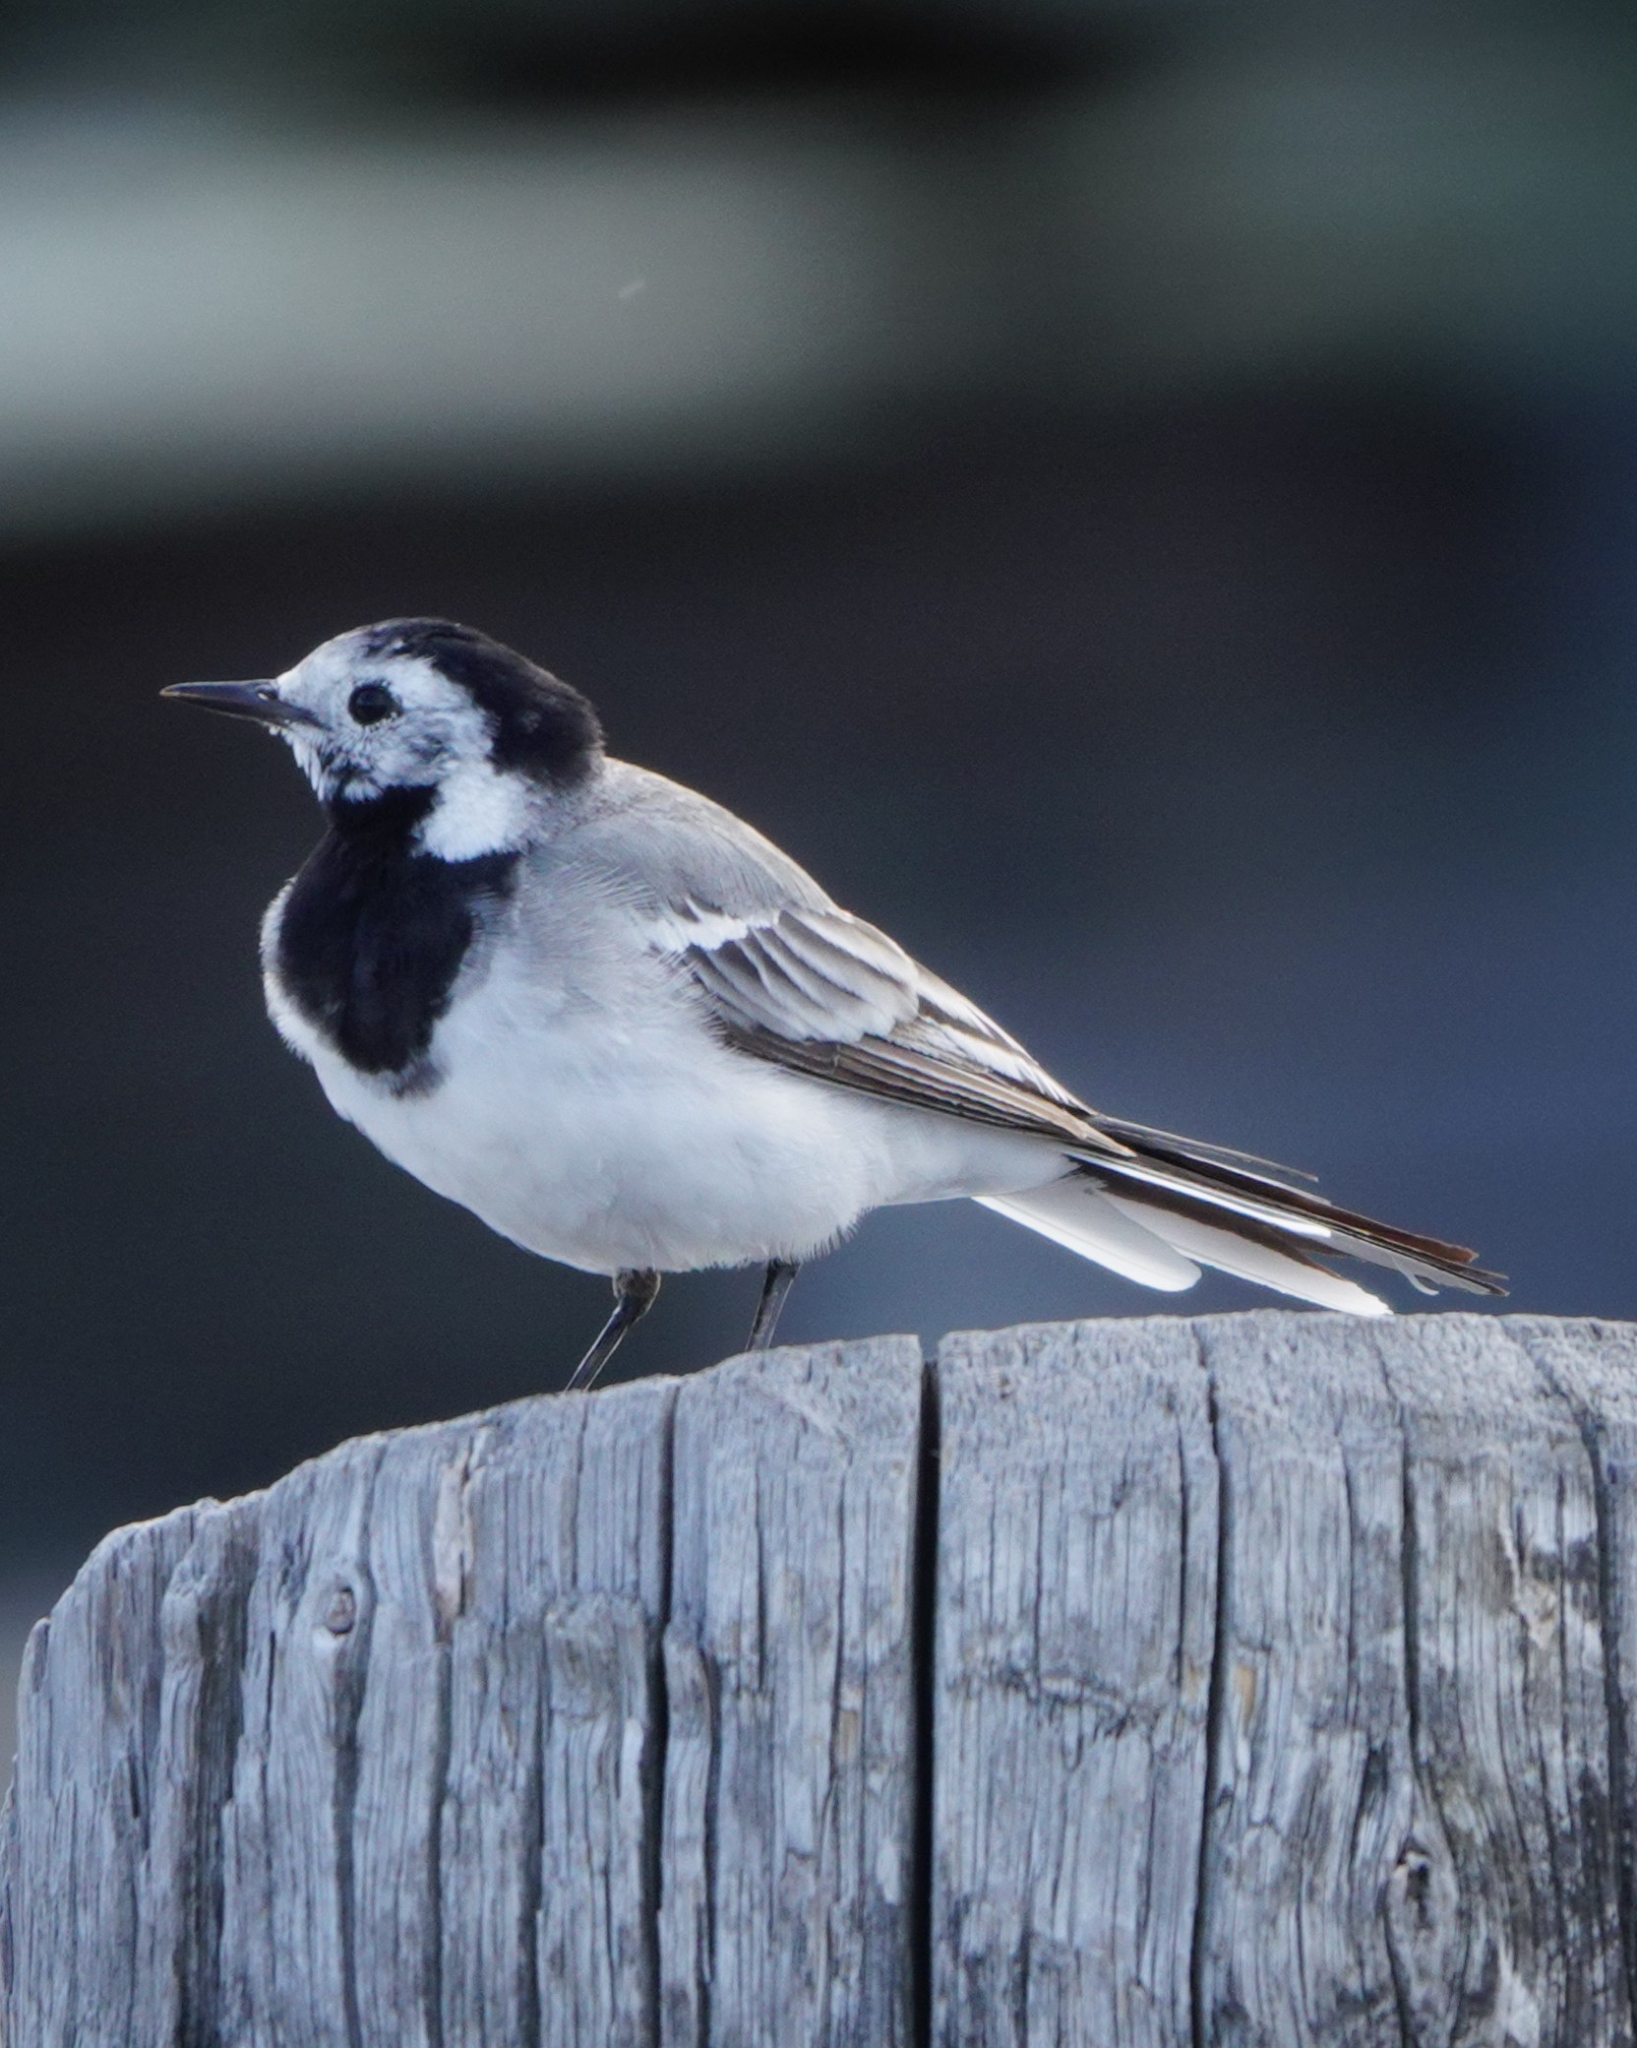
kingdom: Animalia
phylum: Chordata
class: Aves
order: Passeriformes
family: Motacillidae
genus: Motacilla
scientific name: Motacilla alba
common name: White wagtail
